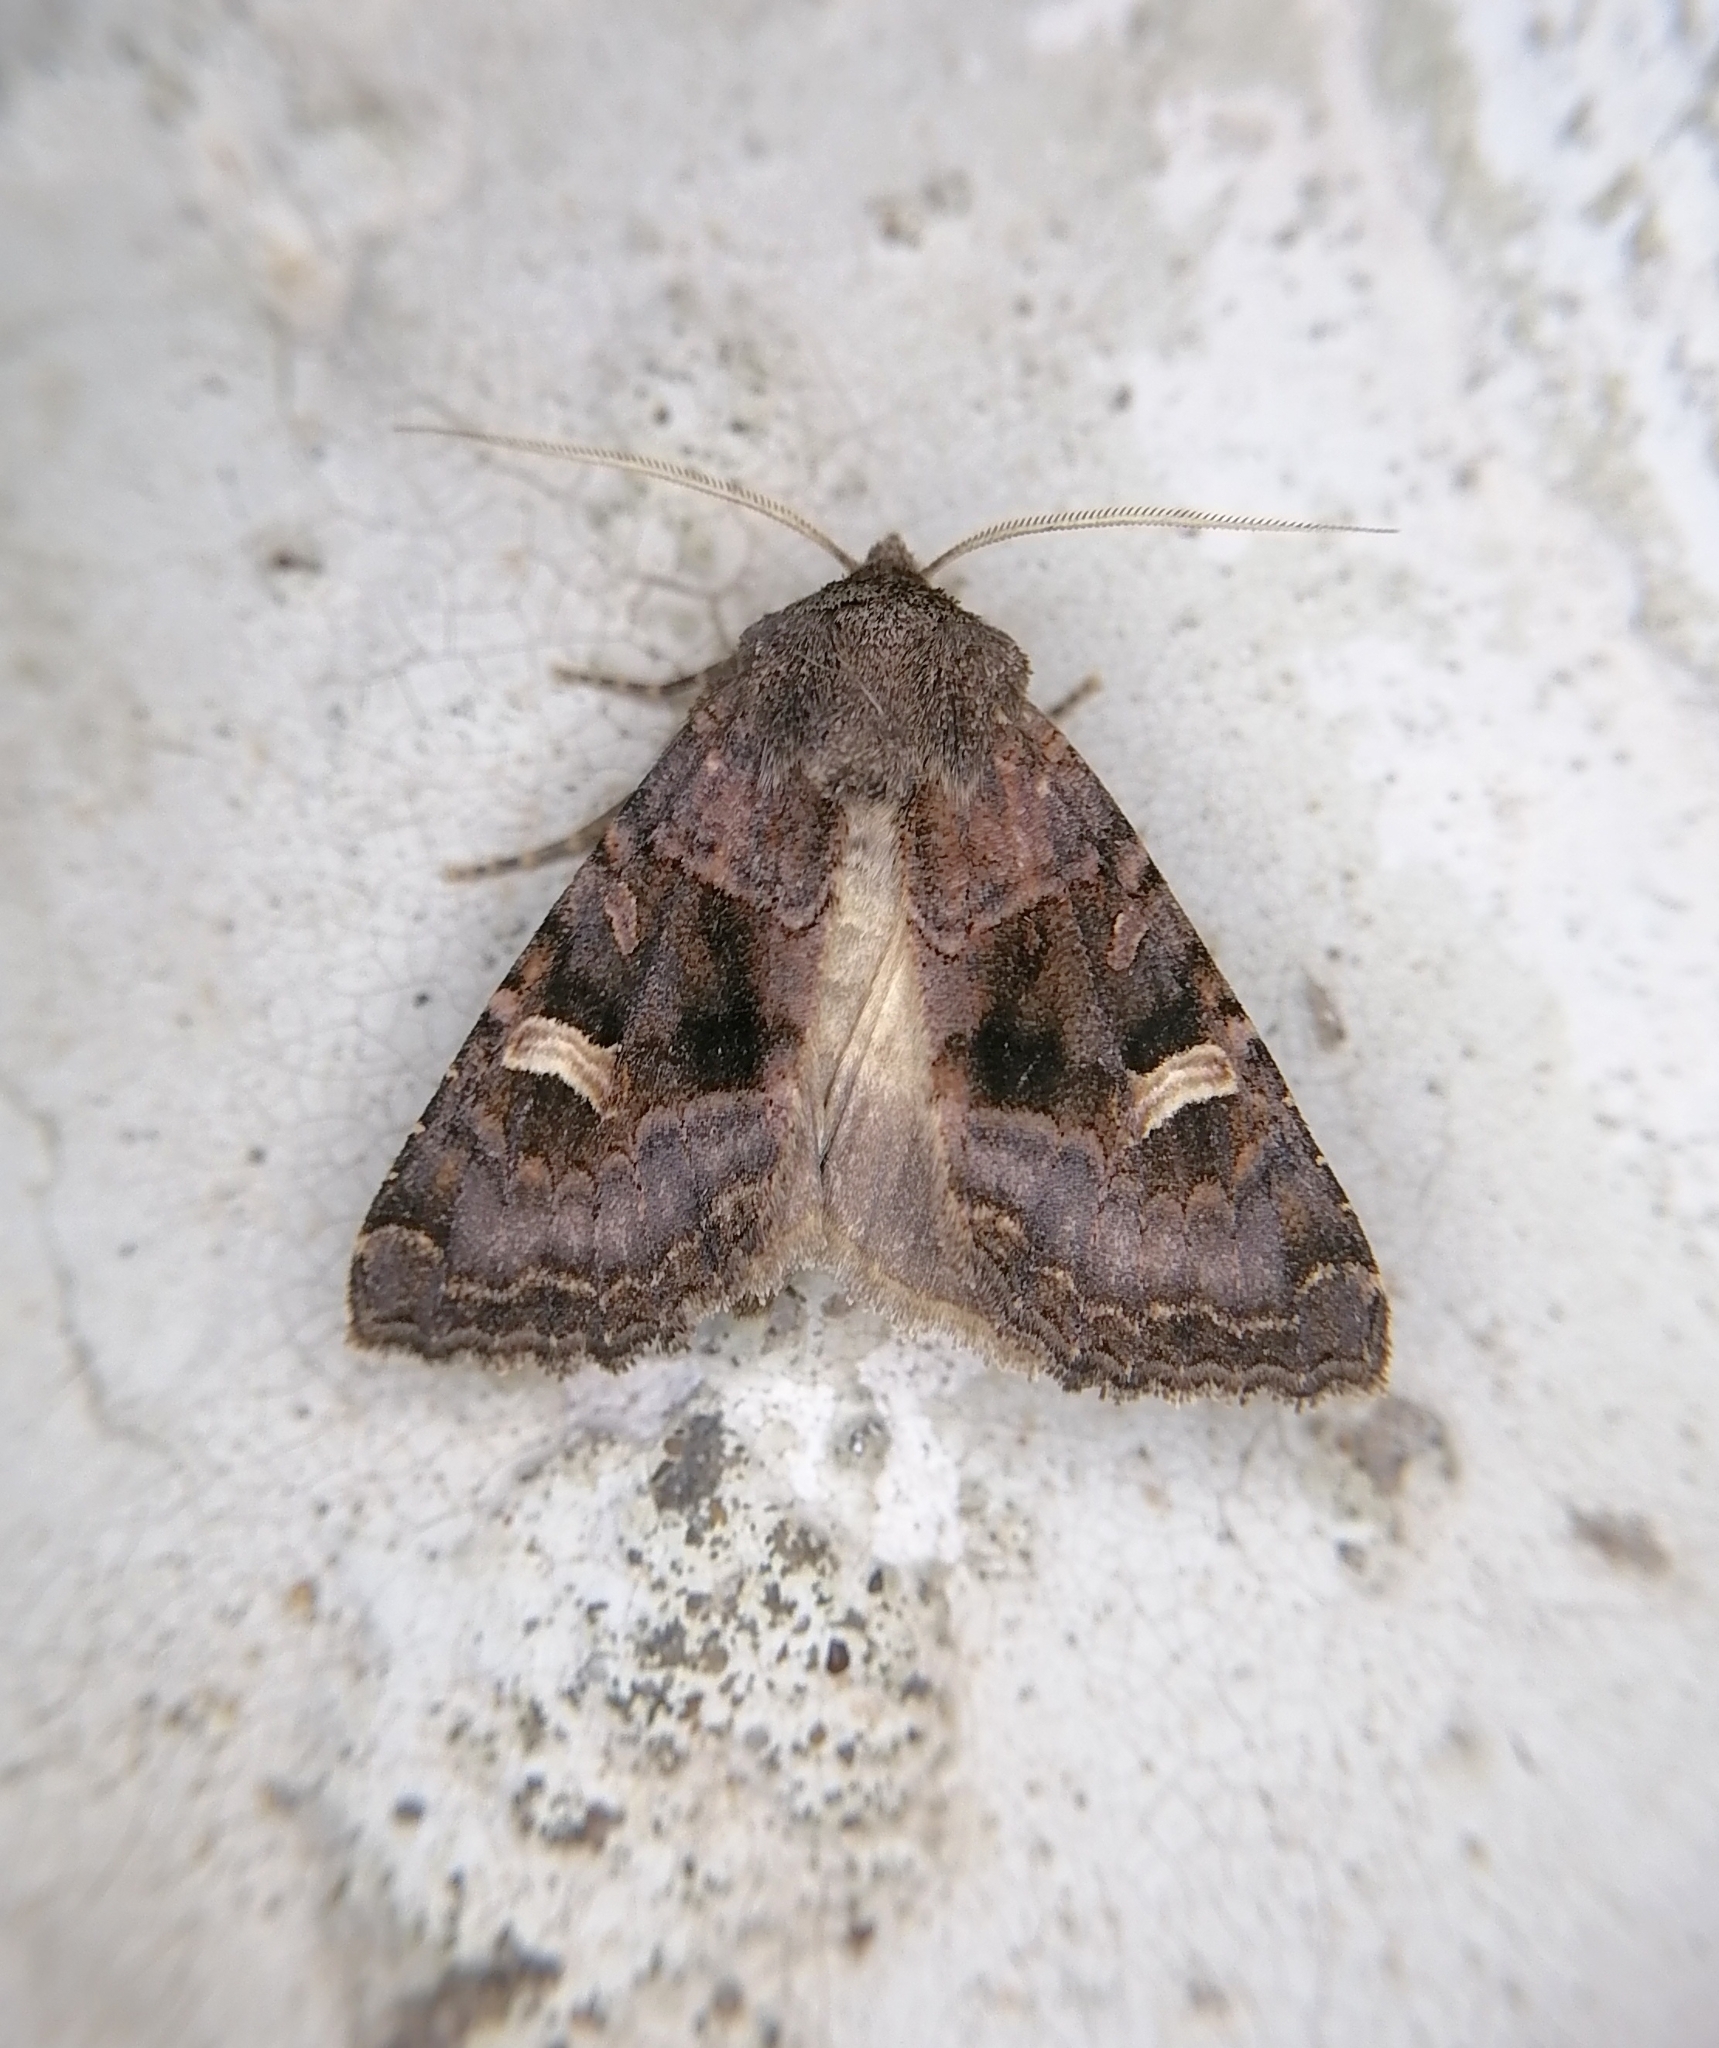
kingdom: Animalia
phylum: Arthropoda
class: Insecta
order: Lepidoptera
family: Noctuidae
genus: Nyssocnemis
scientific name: Nyssocnemis eversmanni
